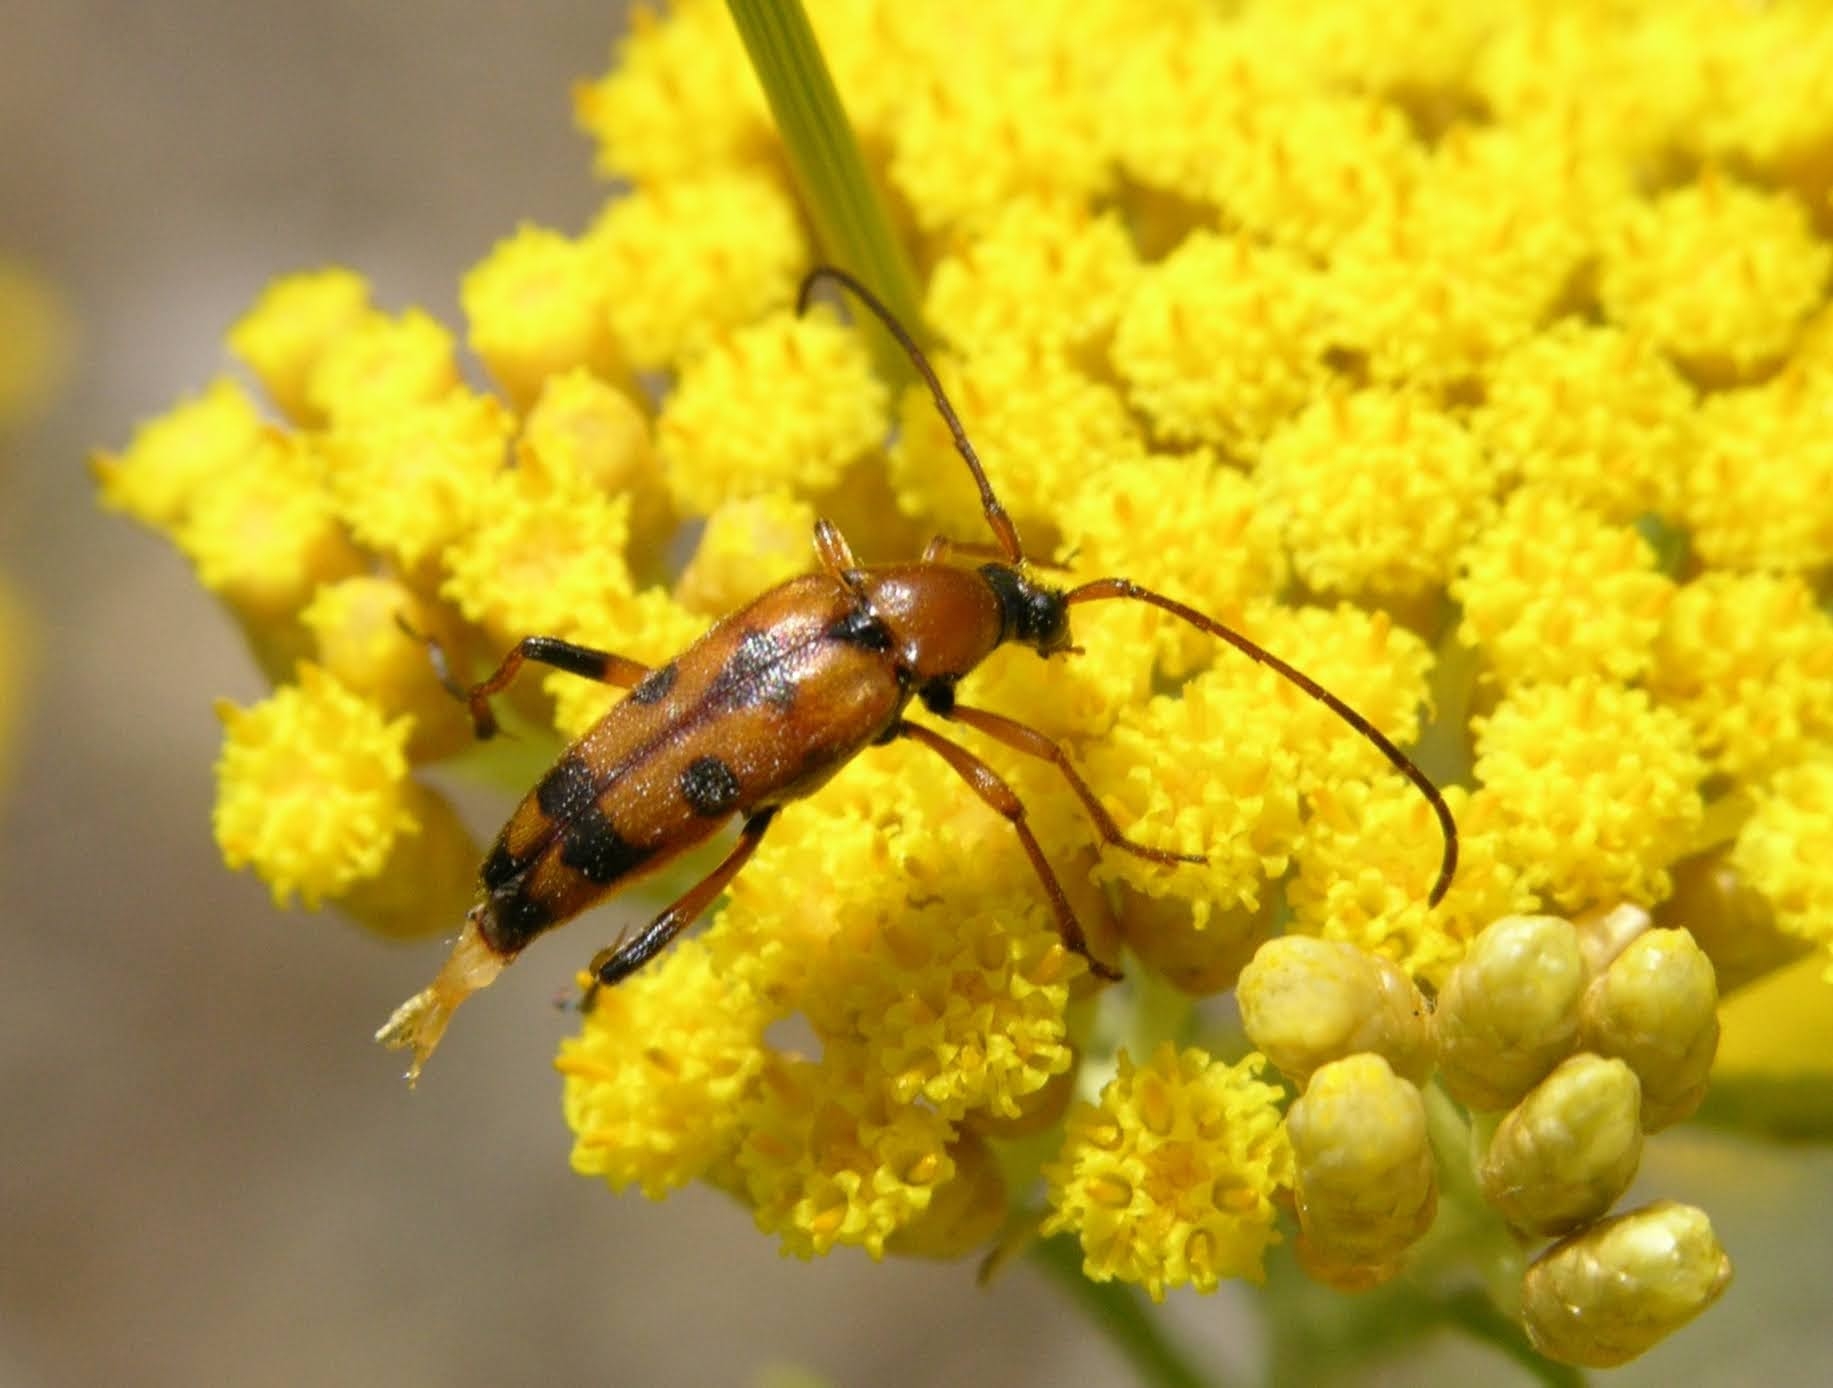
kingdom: Animalia
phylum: Arthropoda
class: Insecta
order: Coleoptera
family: Cerambycidae
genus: Stenurella
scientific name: Stenurella septempunctata
